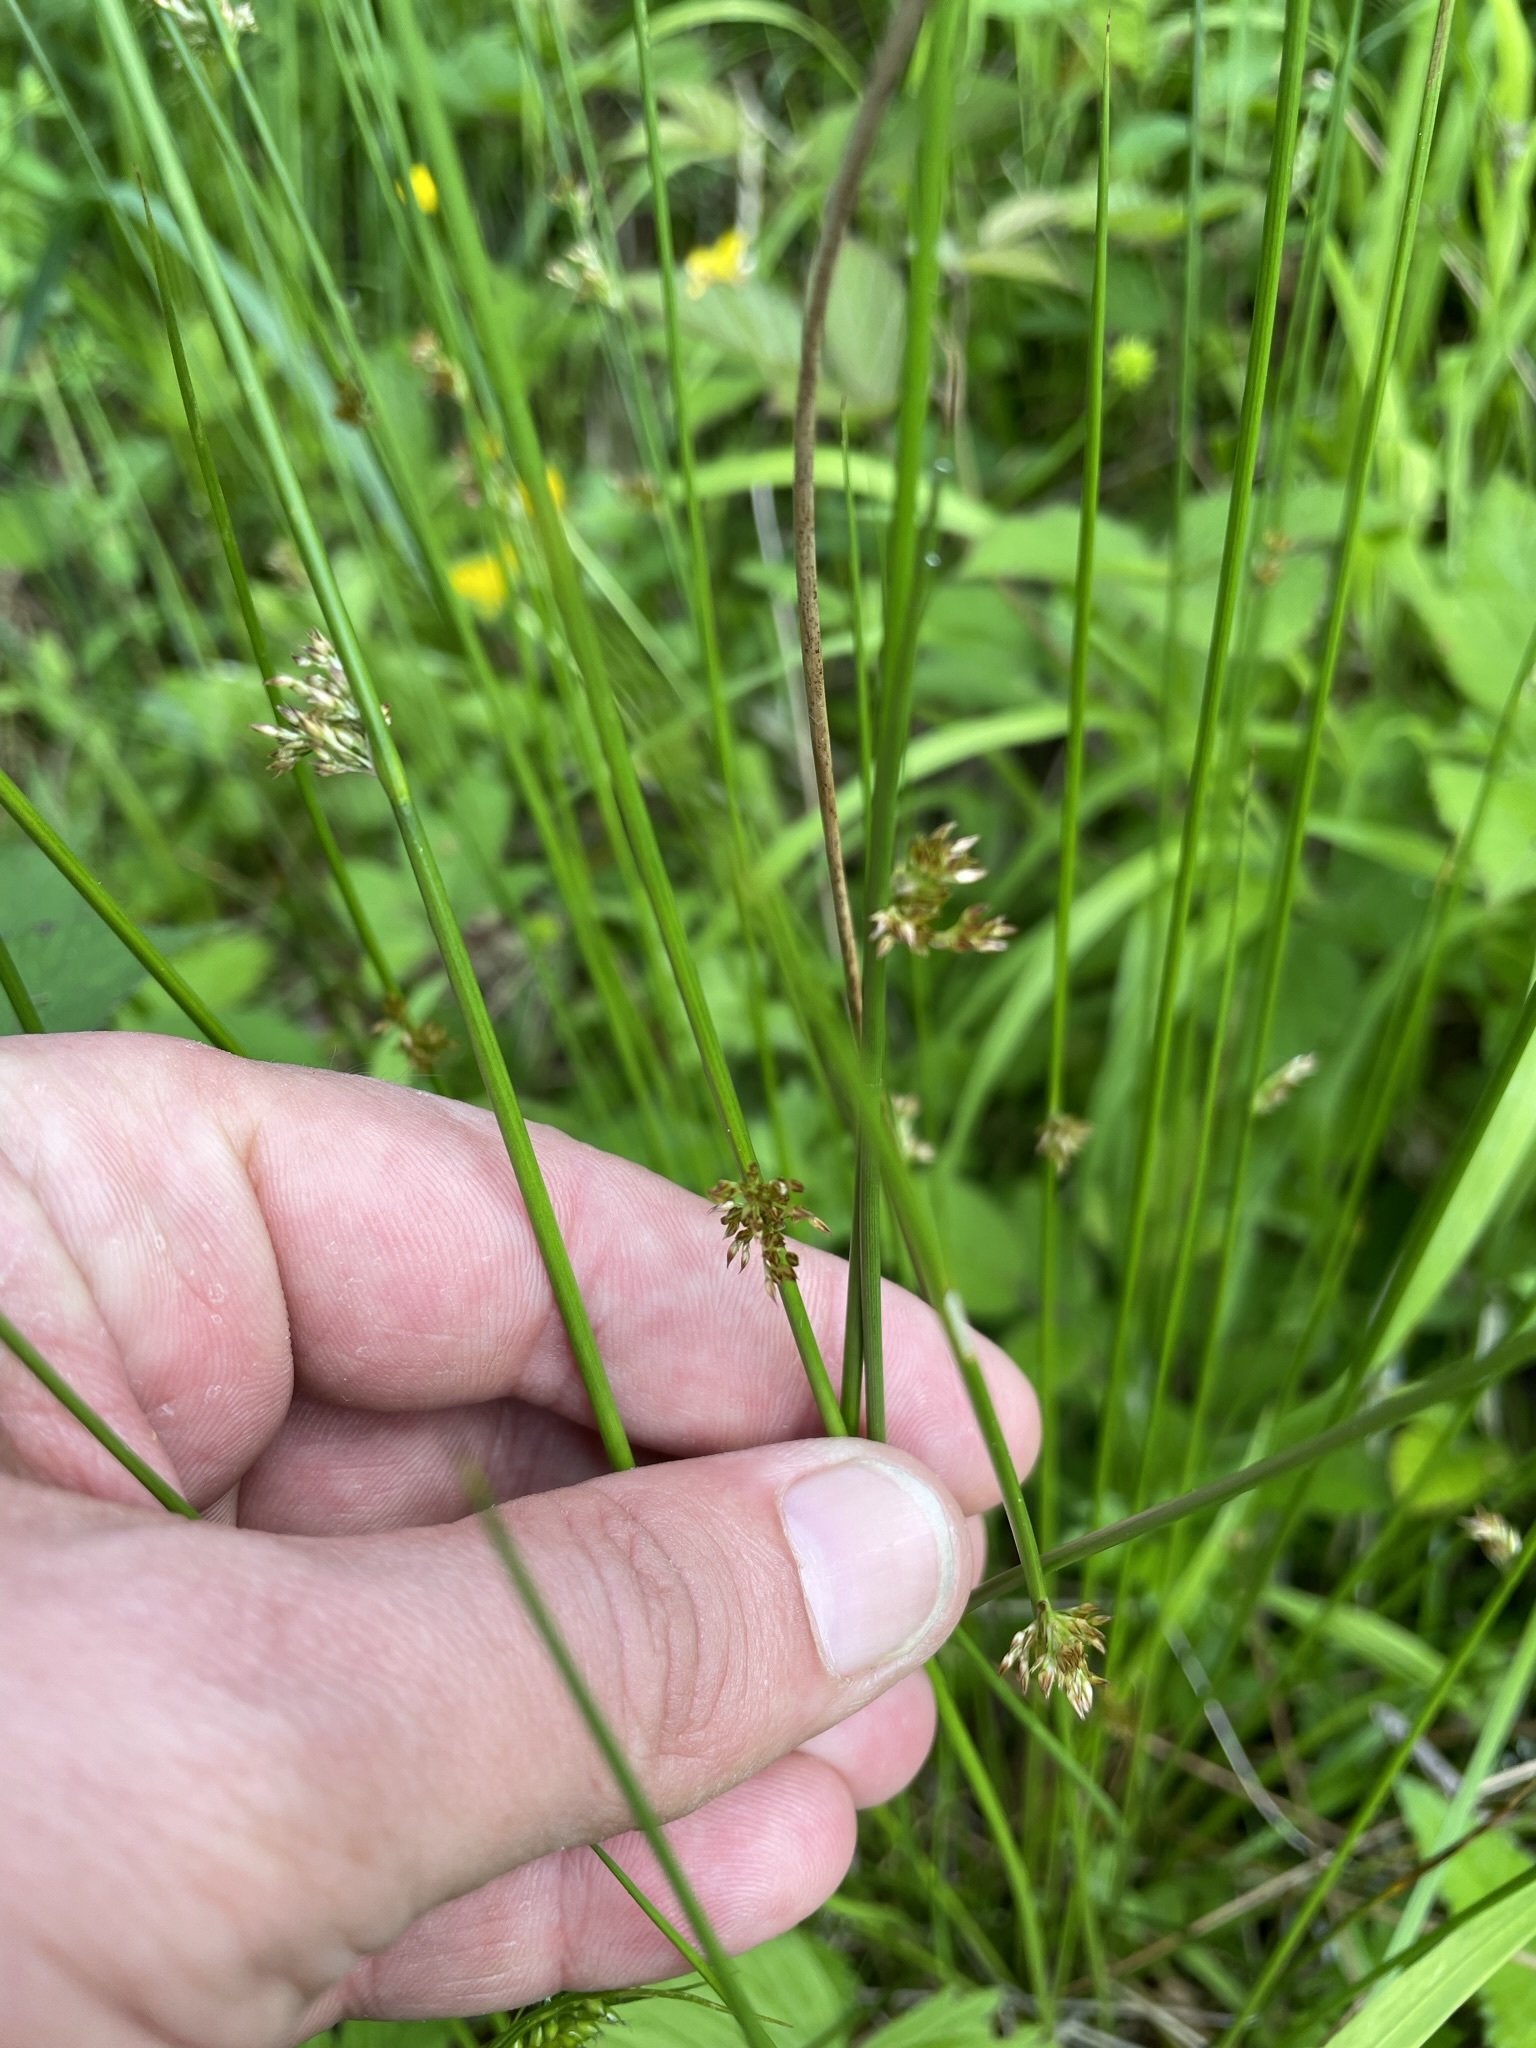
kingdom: Plantae
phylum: Tracheophyta
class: Liliopsida
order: Poales
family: Juncaceae
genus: Juncus
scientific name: Juncus effusus
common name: Soft rush
